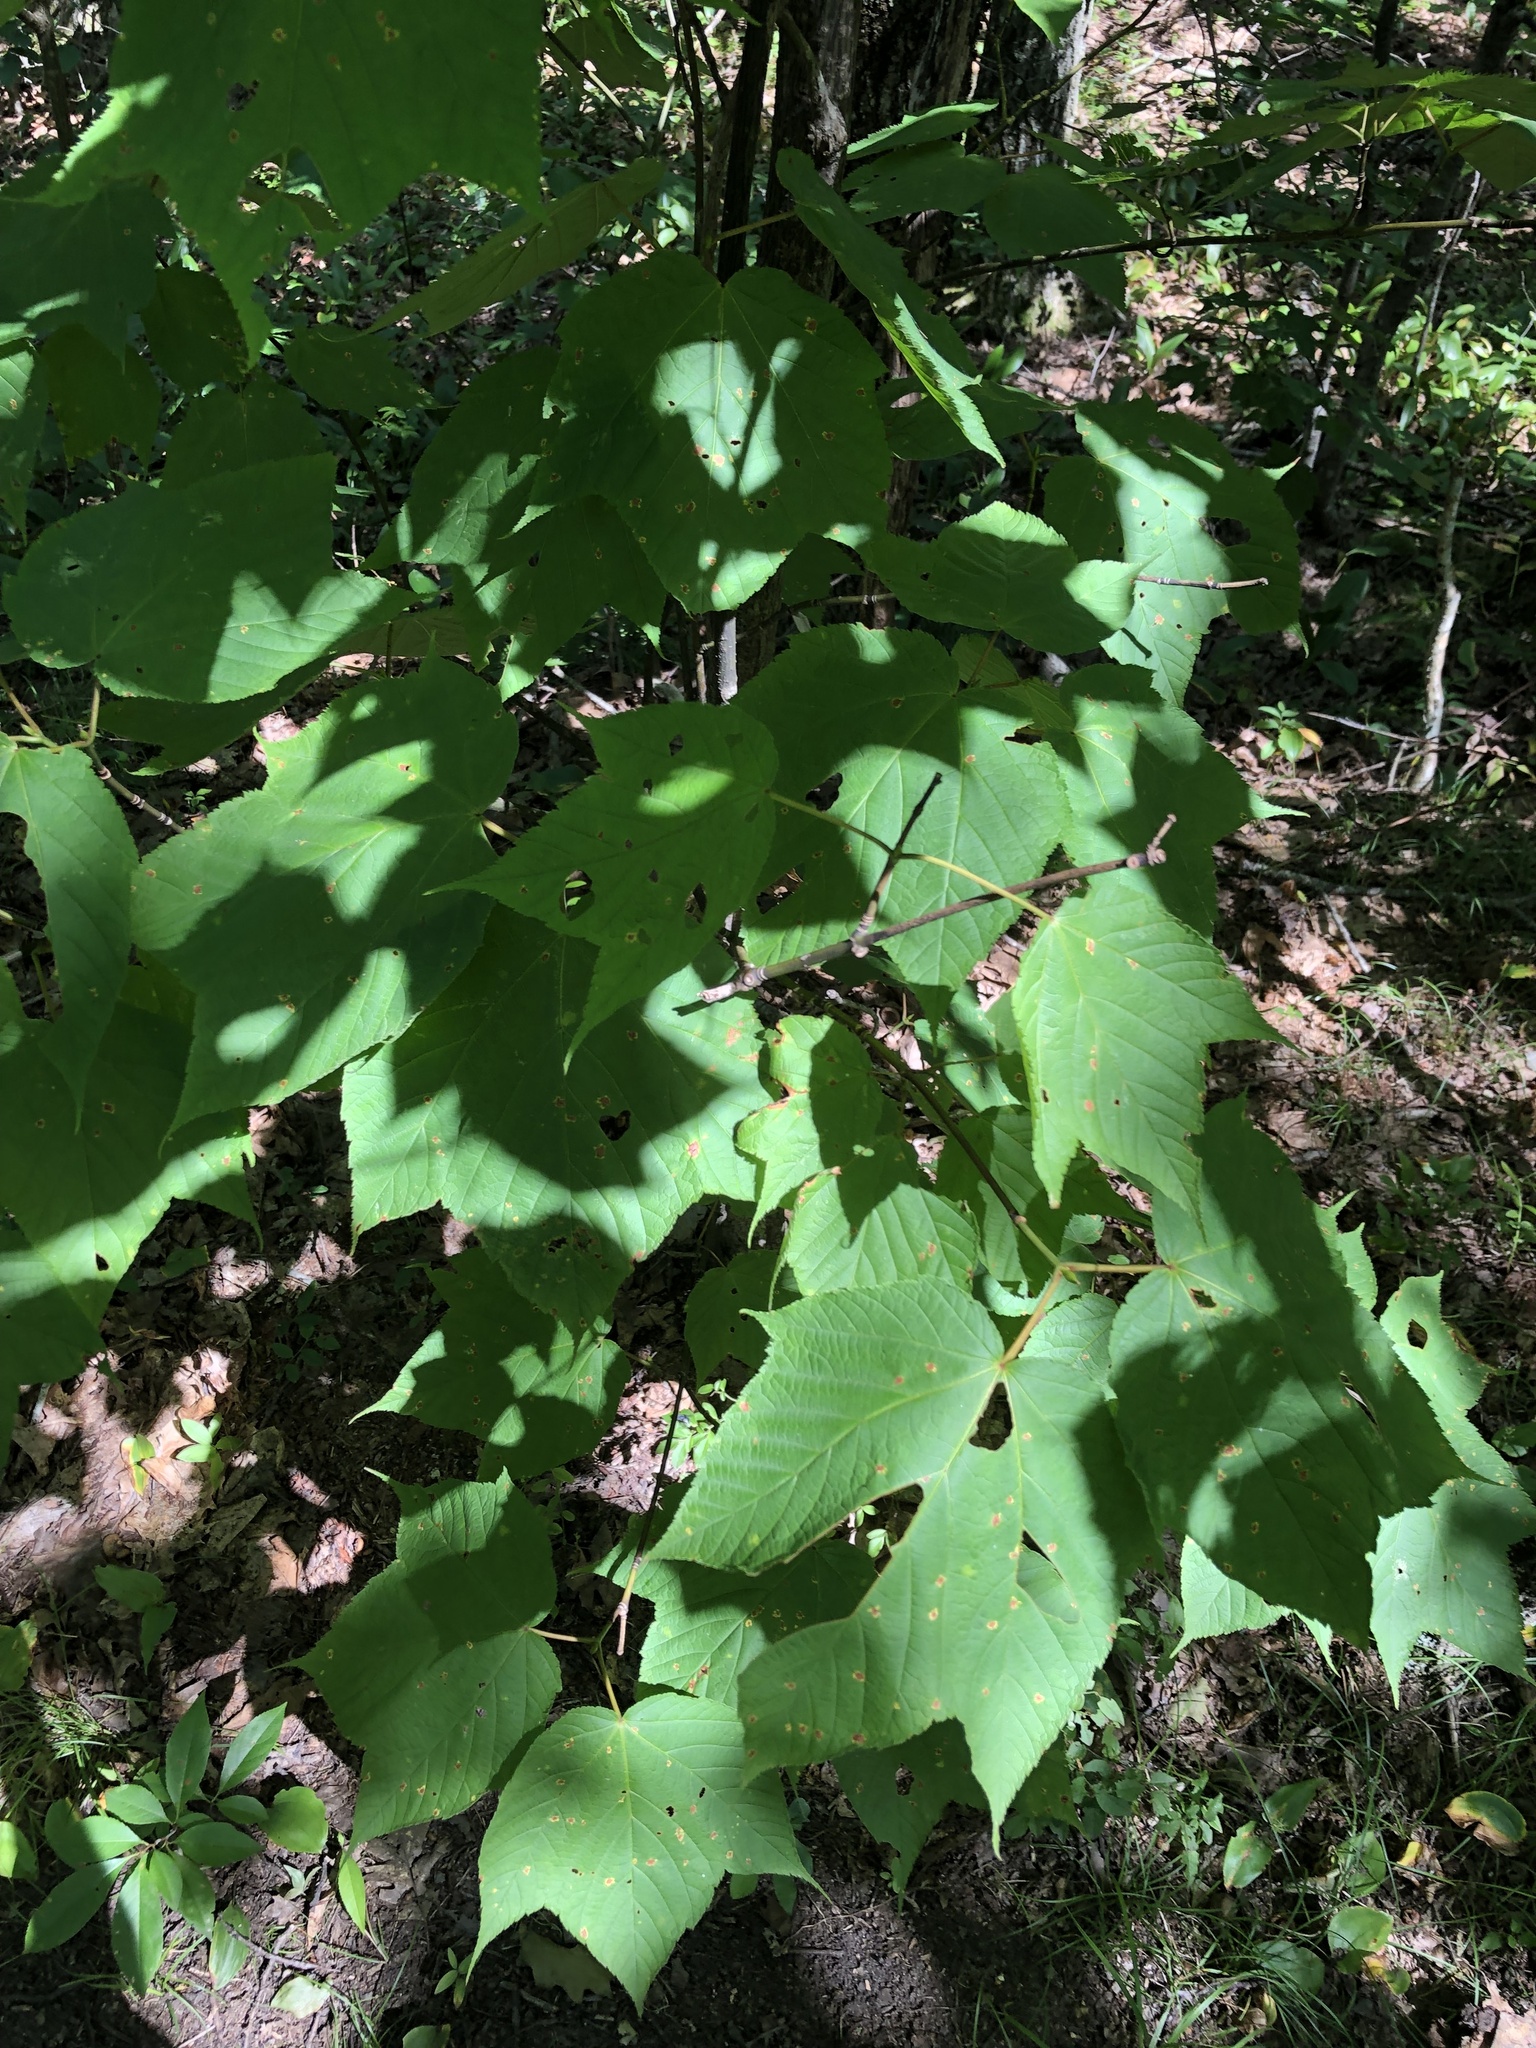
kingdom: Plantae
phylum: Tracheophyta
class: Magnoliopsida
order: Sapindales
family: Sapindaceae
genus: Acer
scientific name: Acer pensylvanicum
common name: Moosewood
